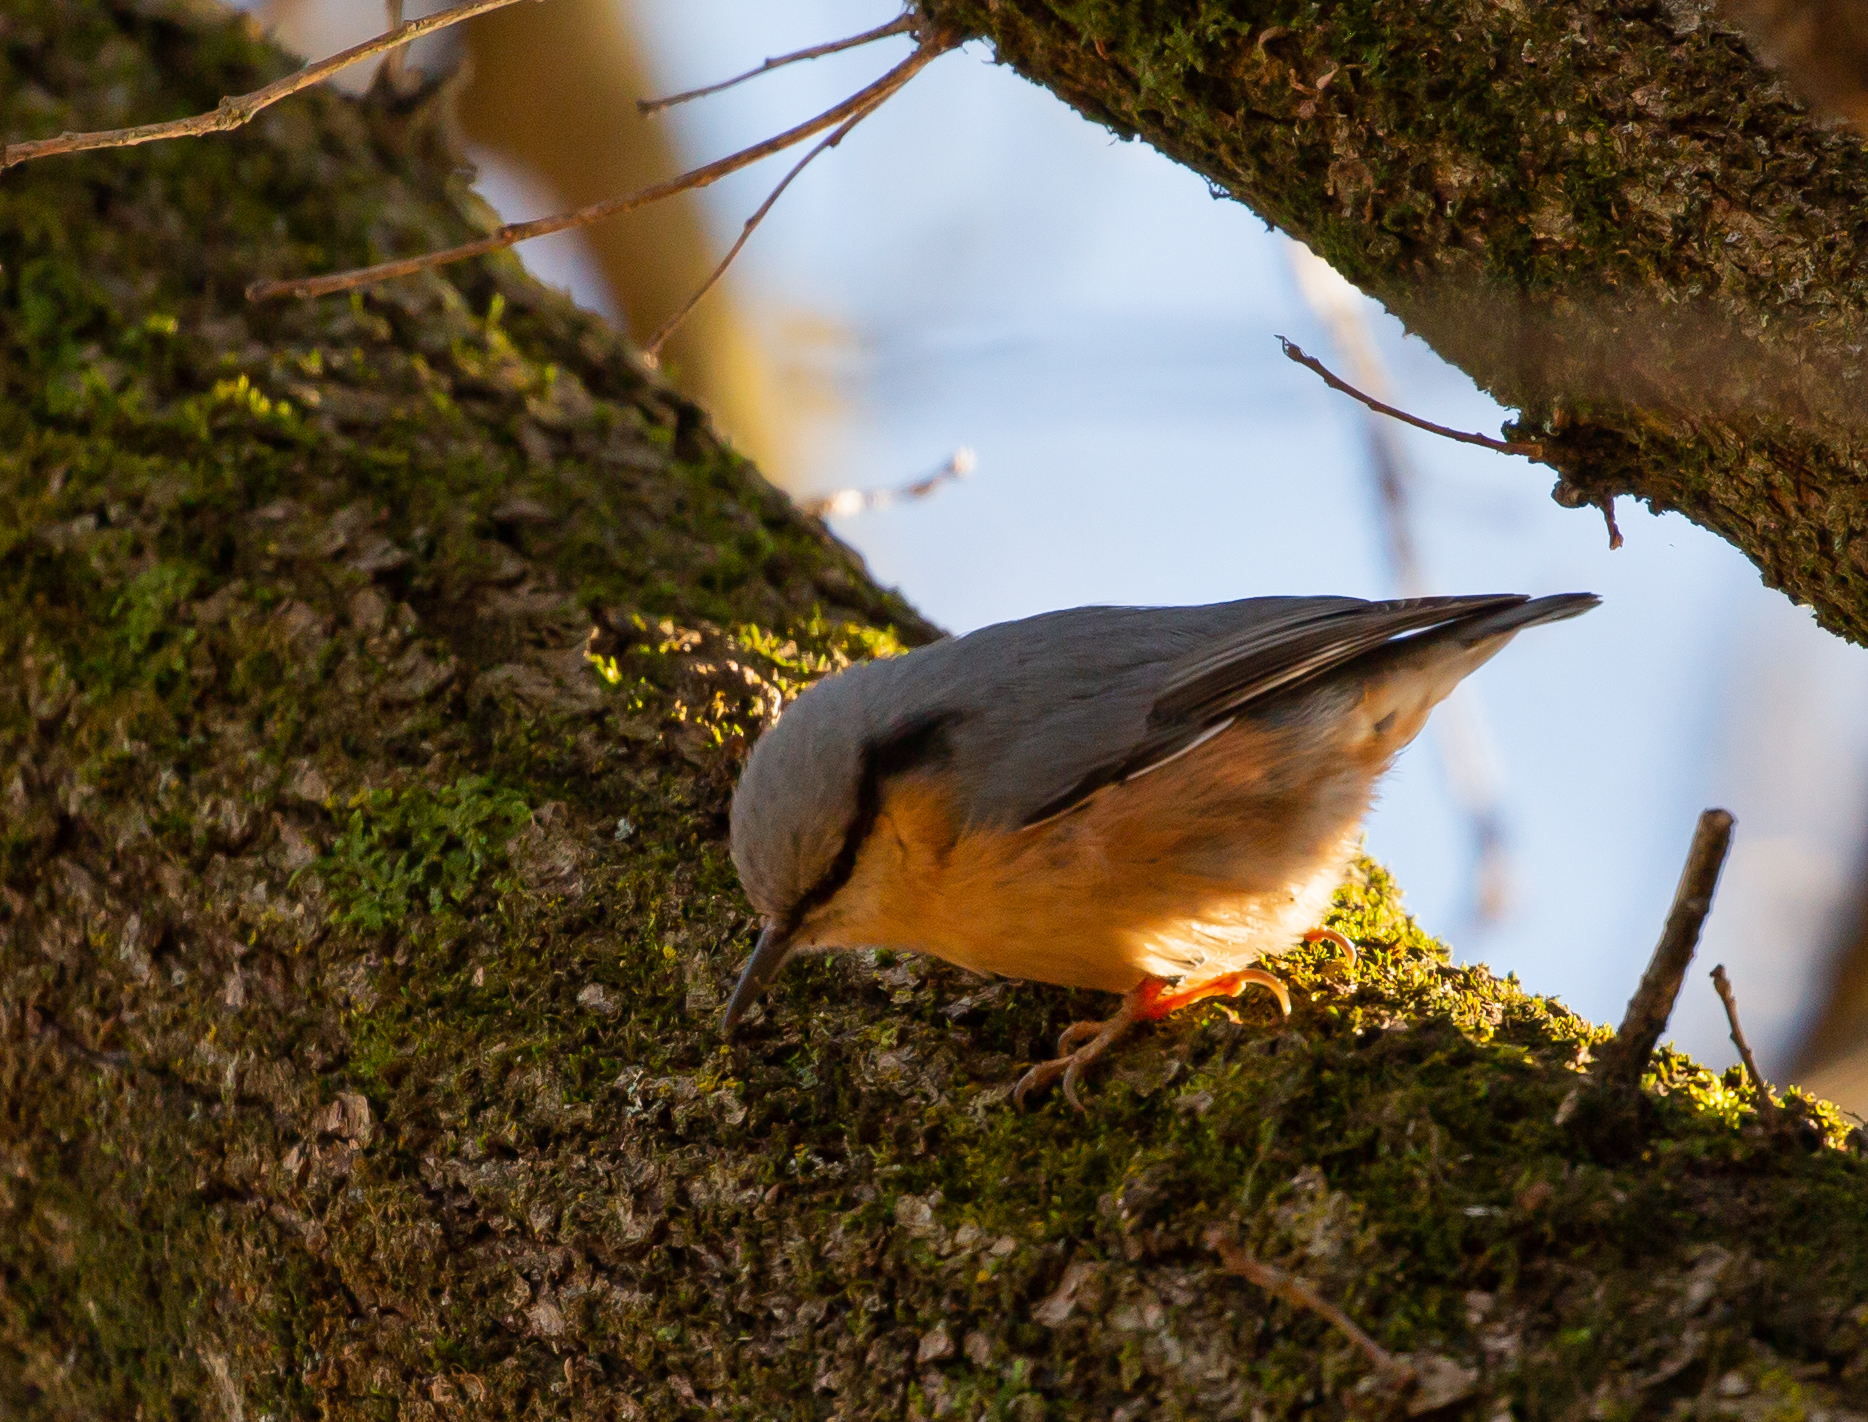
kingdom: Animalia
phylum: Chordata
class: Aves
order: Passeriformes
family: Sittidae
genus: Sitta
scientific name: Sitta europaea
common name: Eurasian nuthatch
